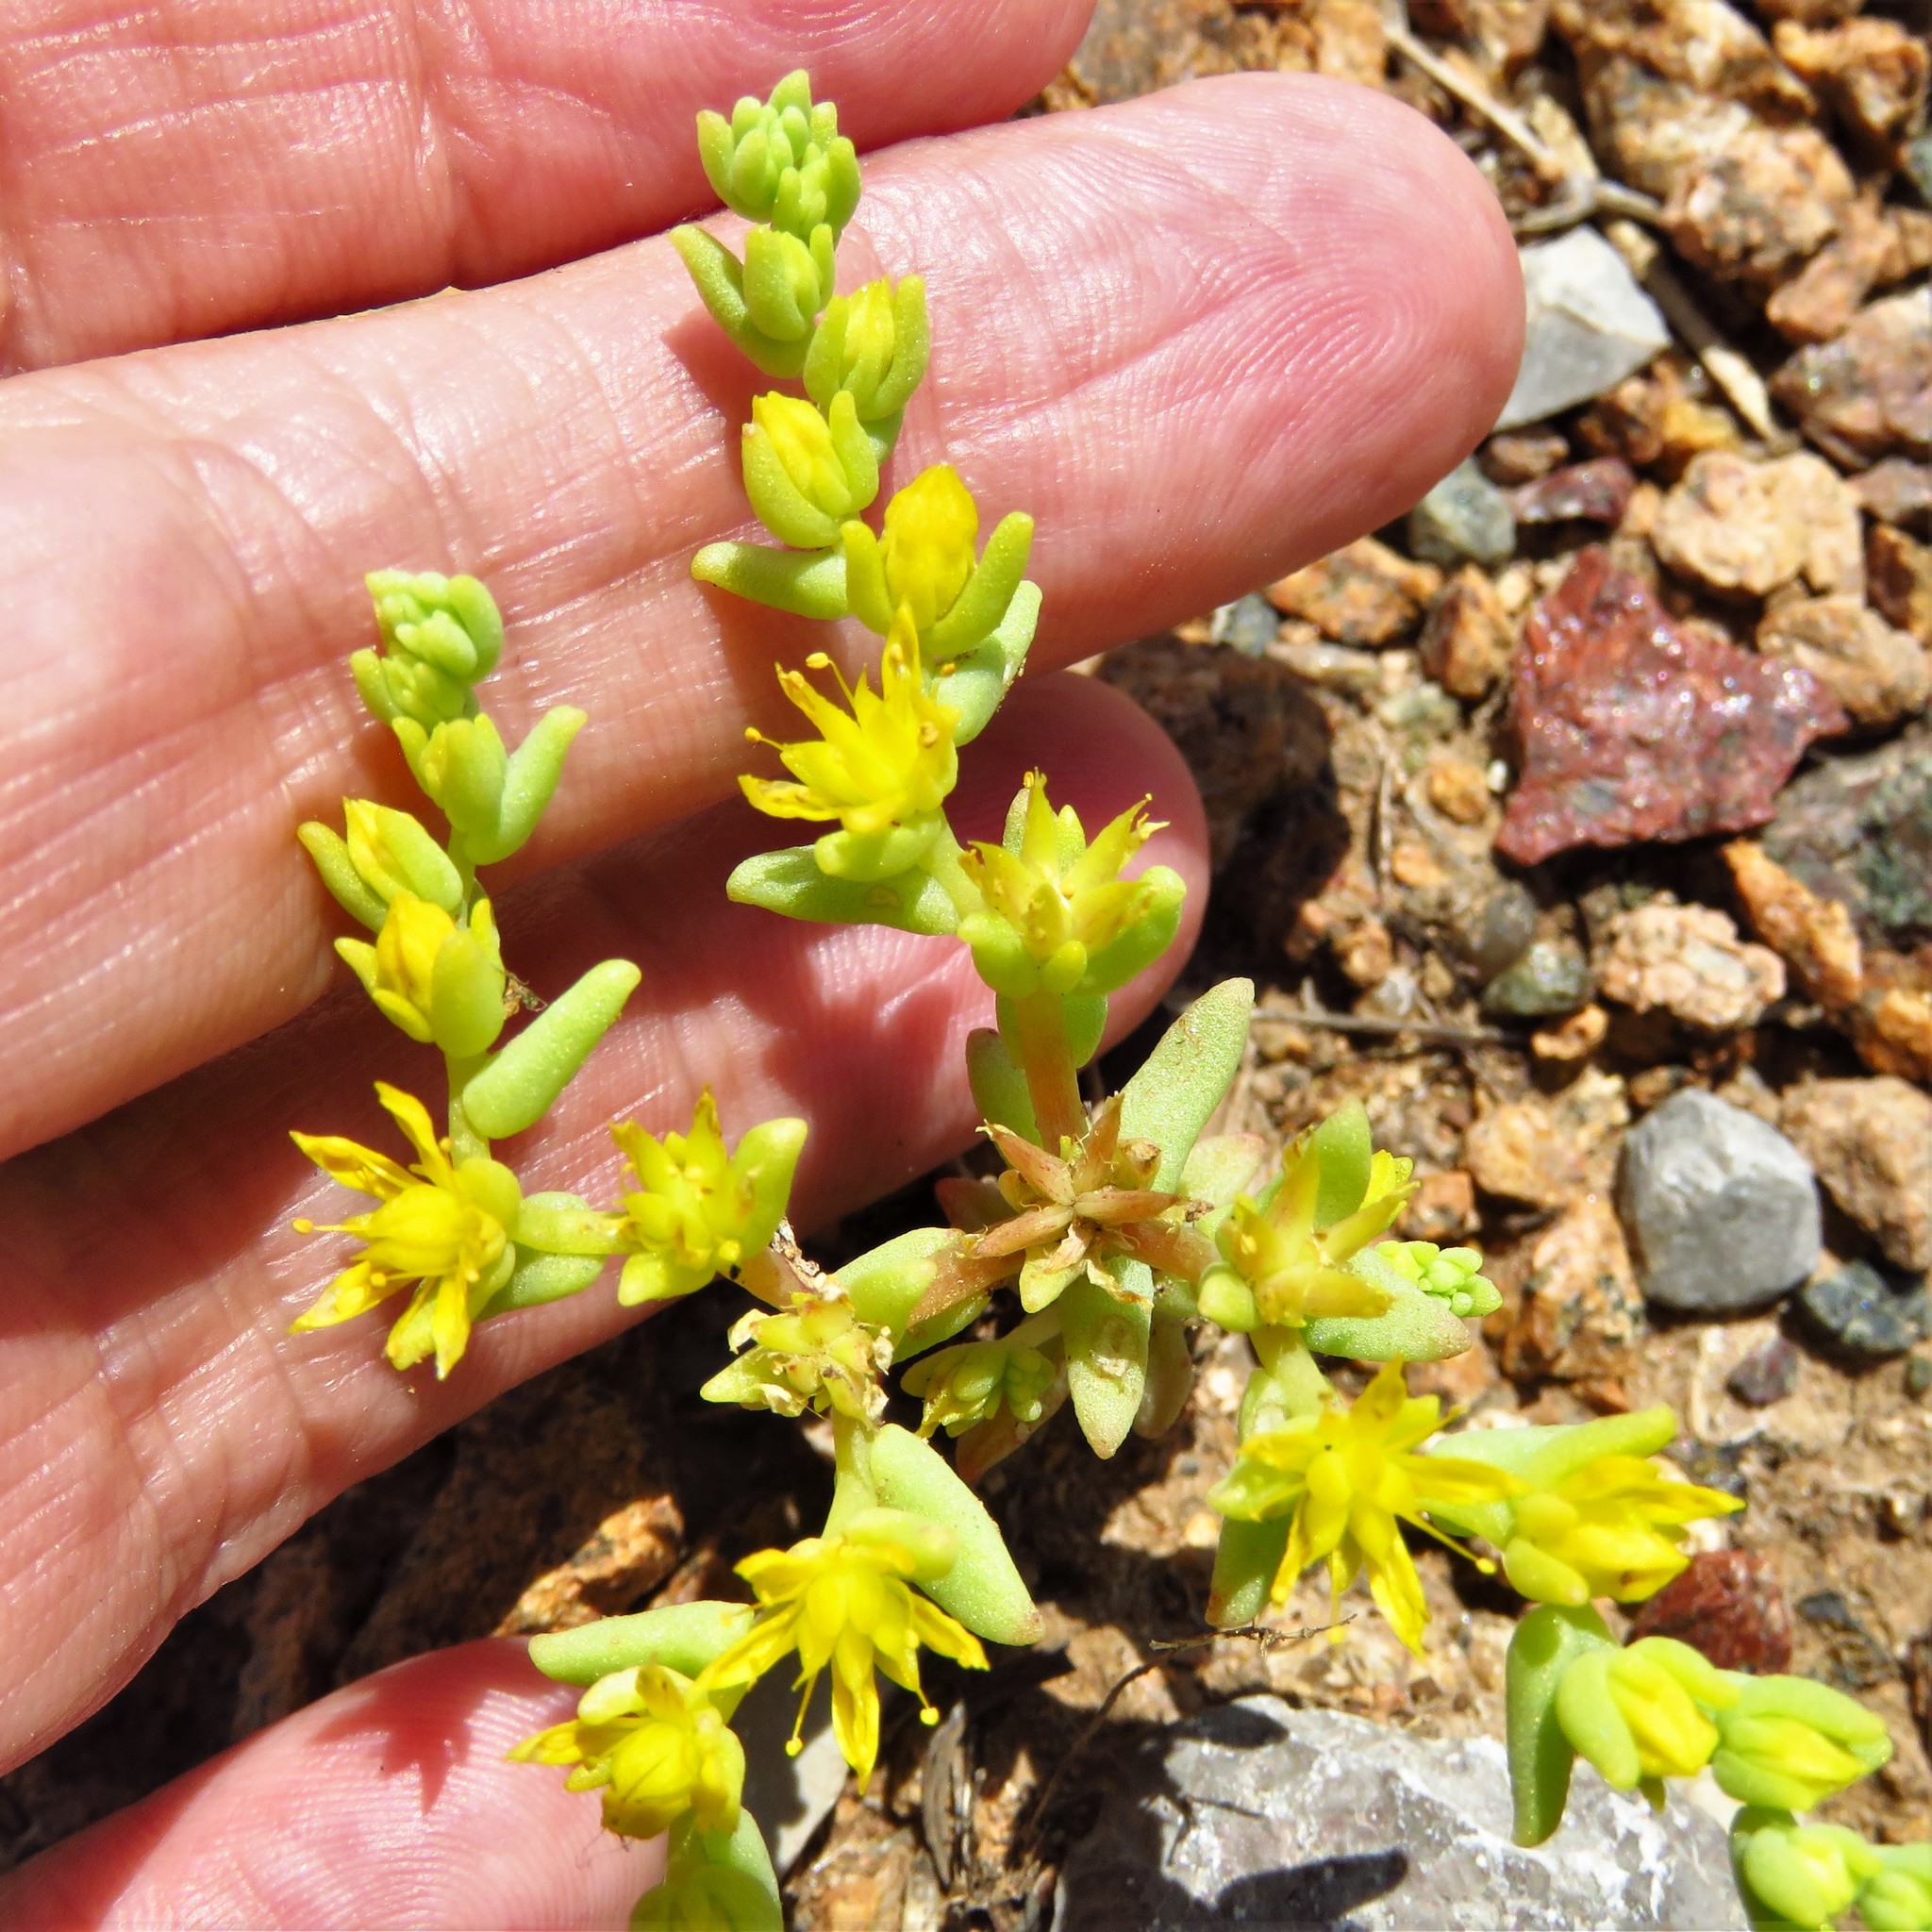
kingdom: Plantae
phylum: Tracheophyta
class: Magnoliopsida
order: Saxifragales
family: Crassulaceae
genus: Sedum
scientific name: Sedum nuttallii
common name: Yellow stonecrop
